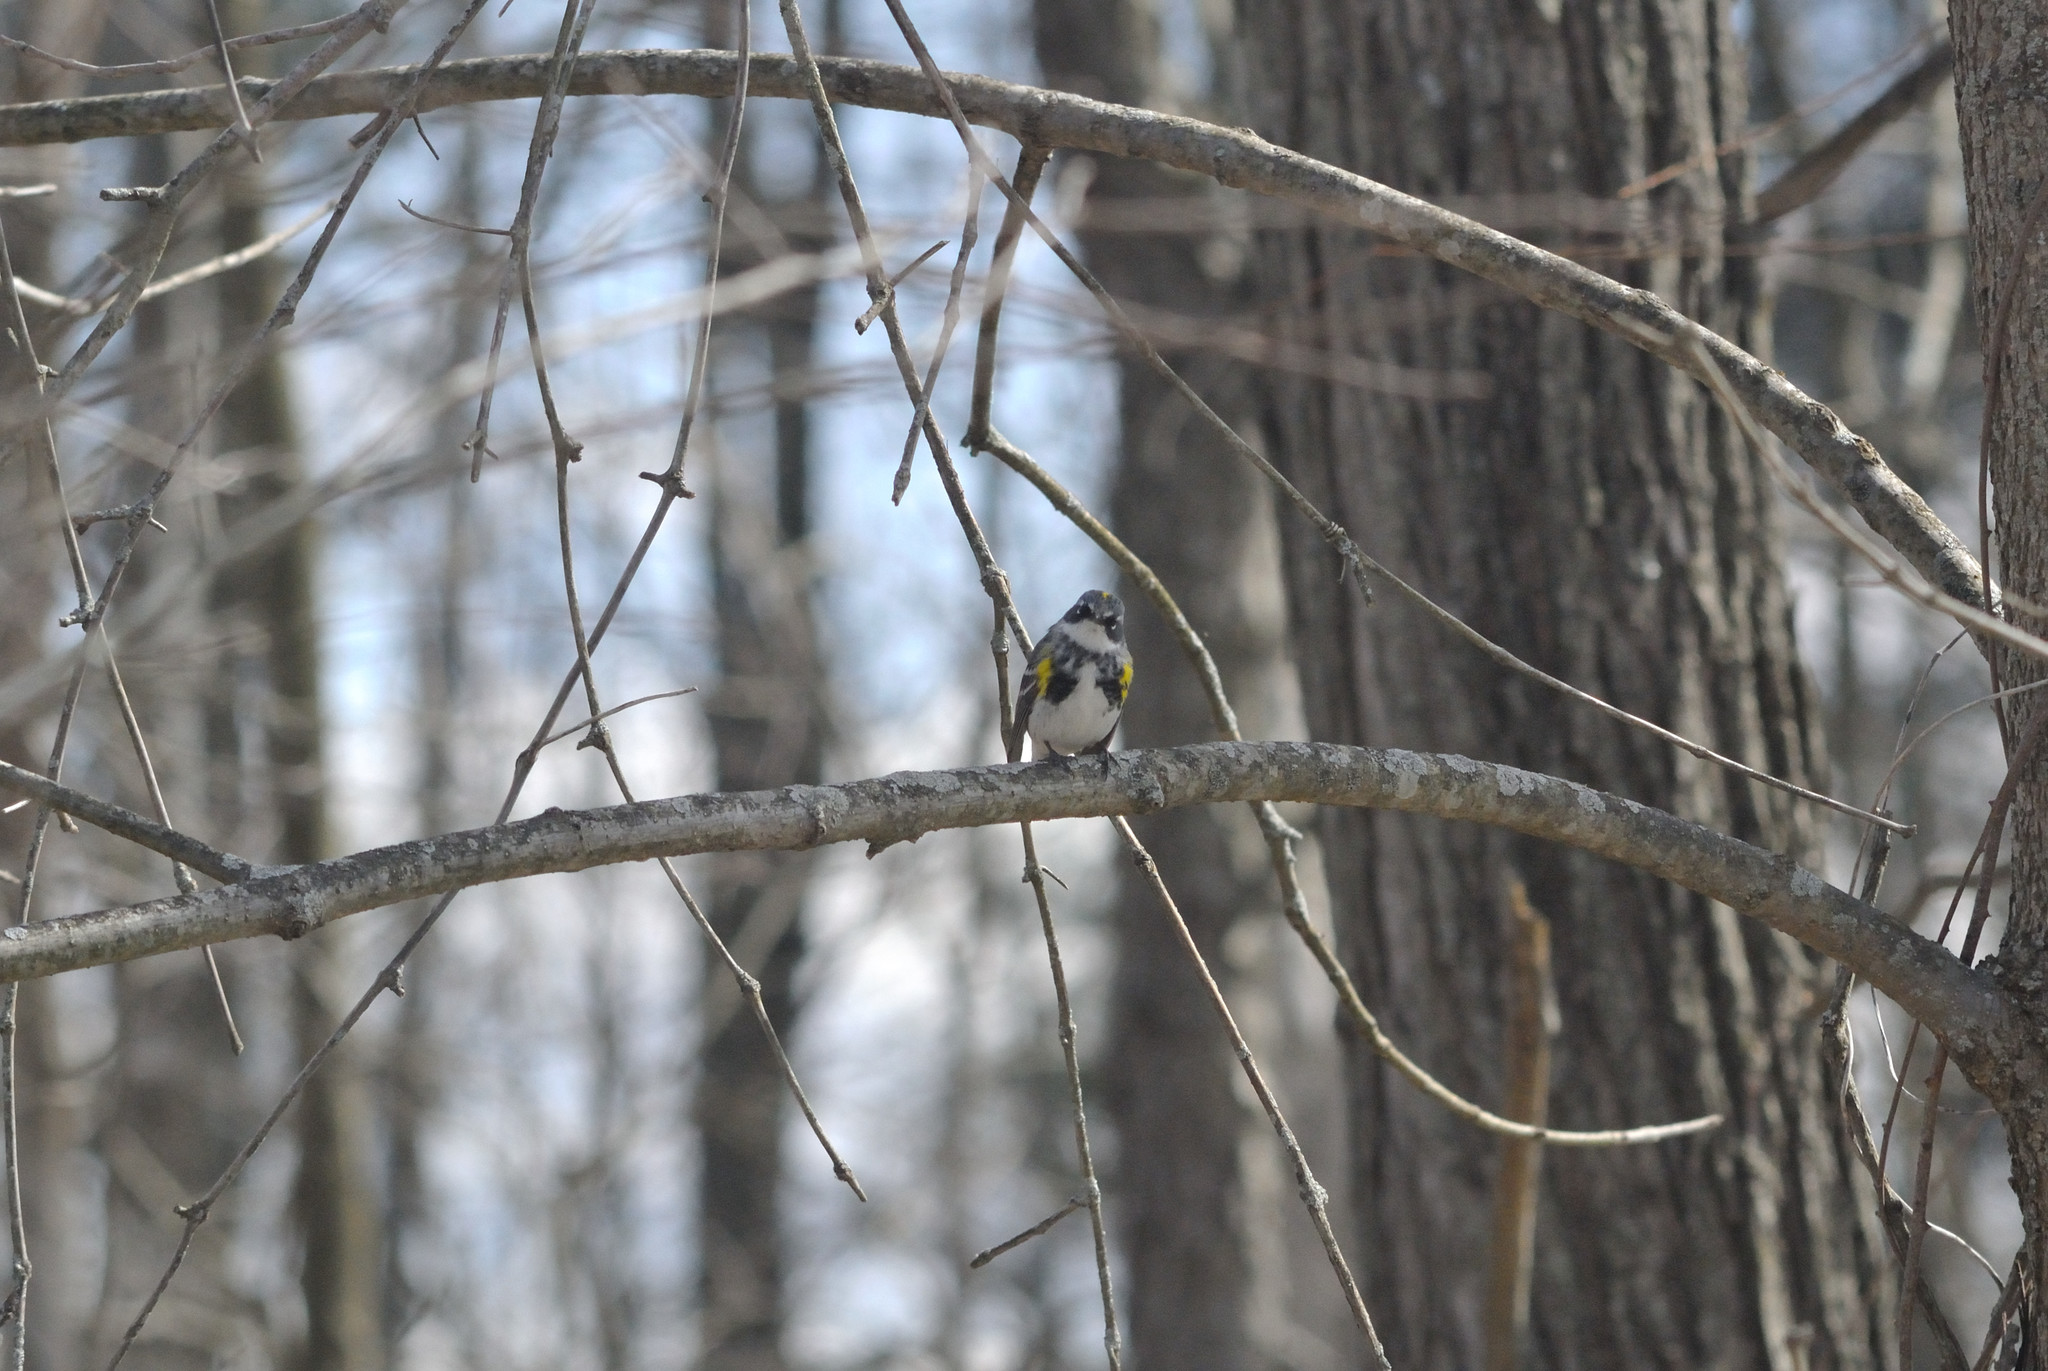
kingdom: Animalia
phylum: Chordata
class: Aves
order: Passeriformes
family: Parulidae
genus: Setophaga
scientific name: Setophaga coronata
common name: Myrtle warbler
